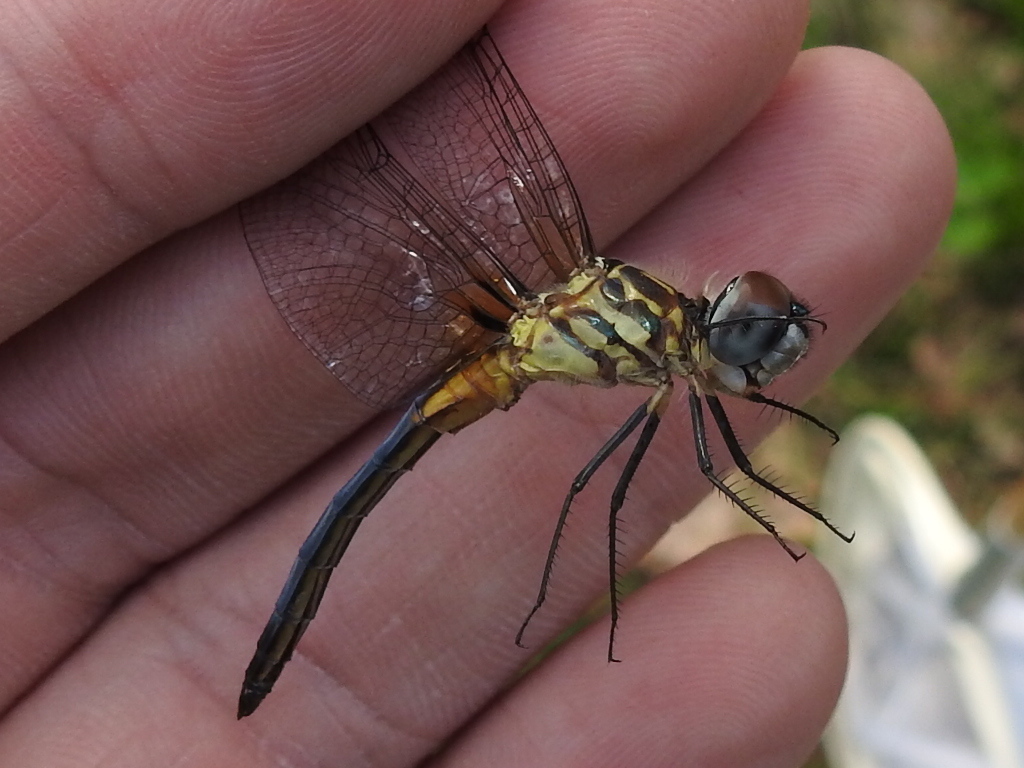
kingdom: Animalia
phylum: Arthropoda
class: Insecta
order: Odonata
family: Libellulidae
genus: Pachydiplax
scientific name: Pachydiplax longipennis
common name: Blue dasher
